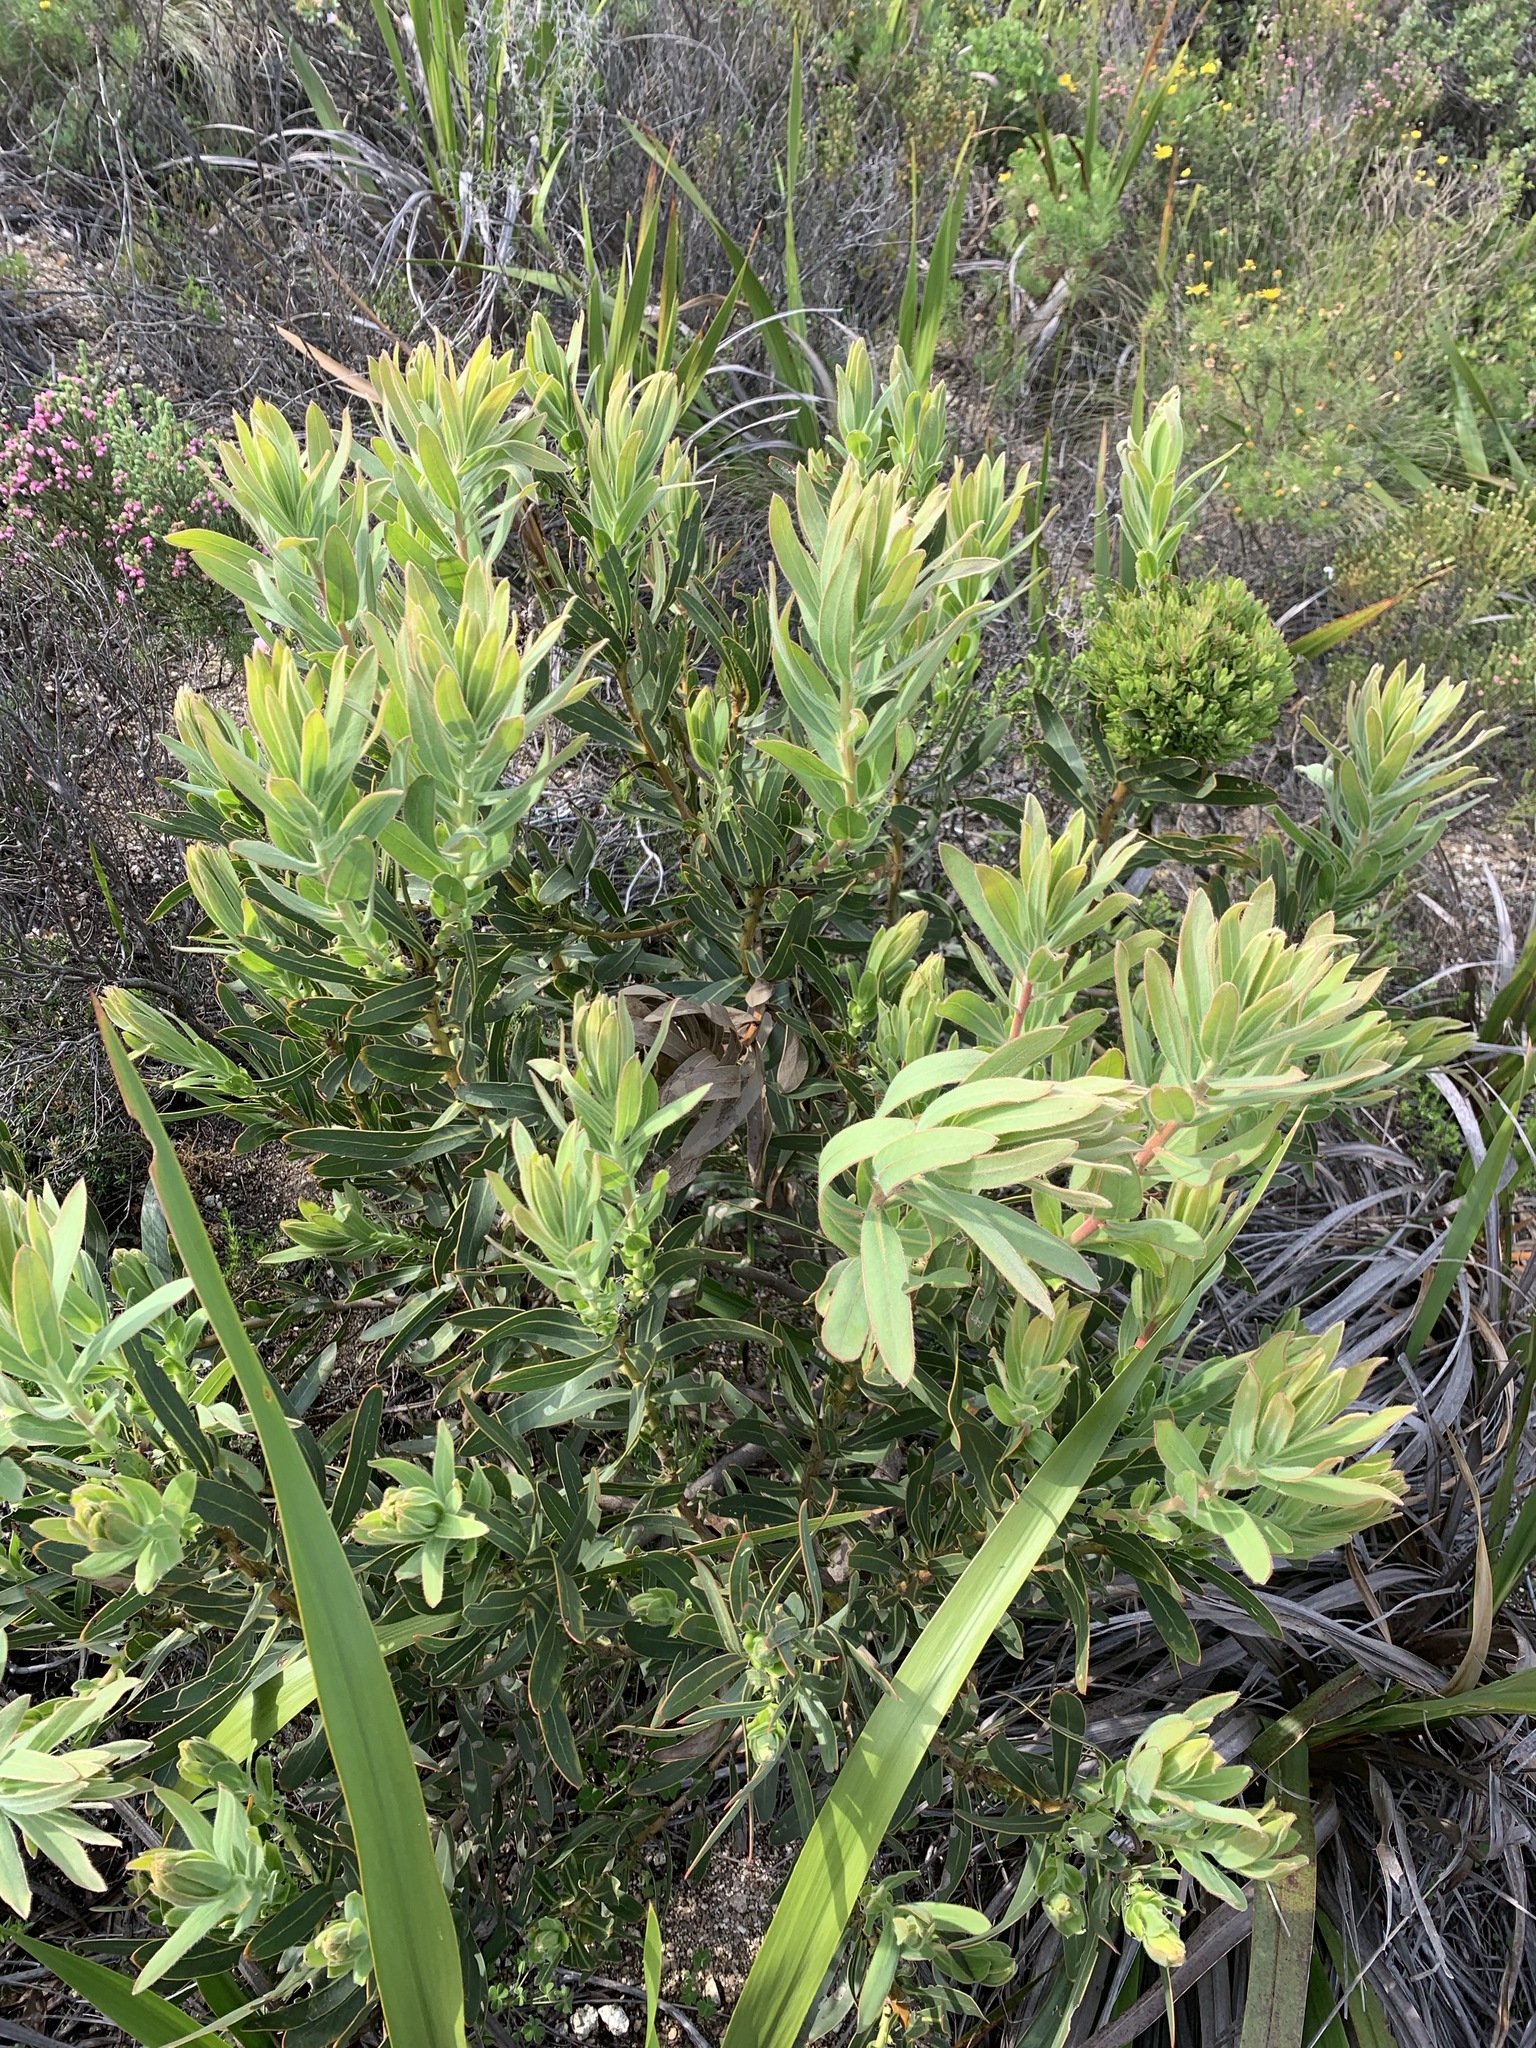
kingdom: Plantae
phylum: Tracheophyta
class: Magnoliopsida
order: Proteales
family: Proteaceae
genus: Protea
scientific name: Protea lepidocarpodendron
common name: Black-bearded protea
